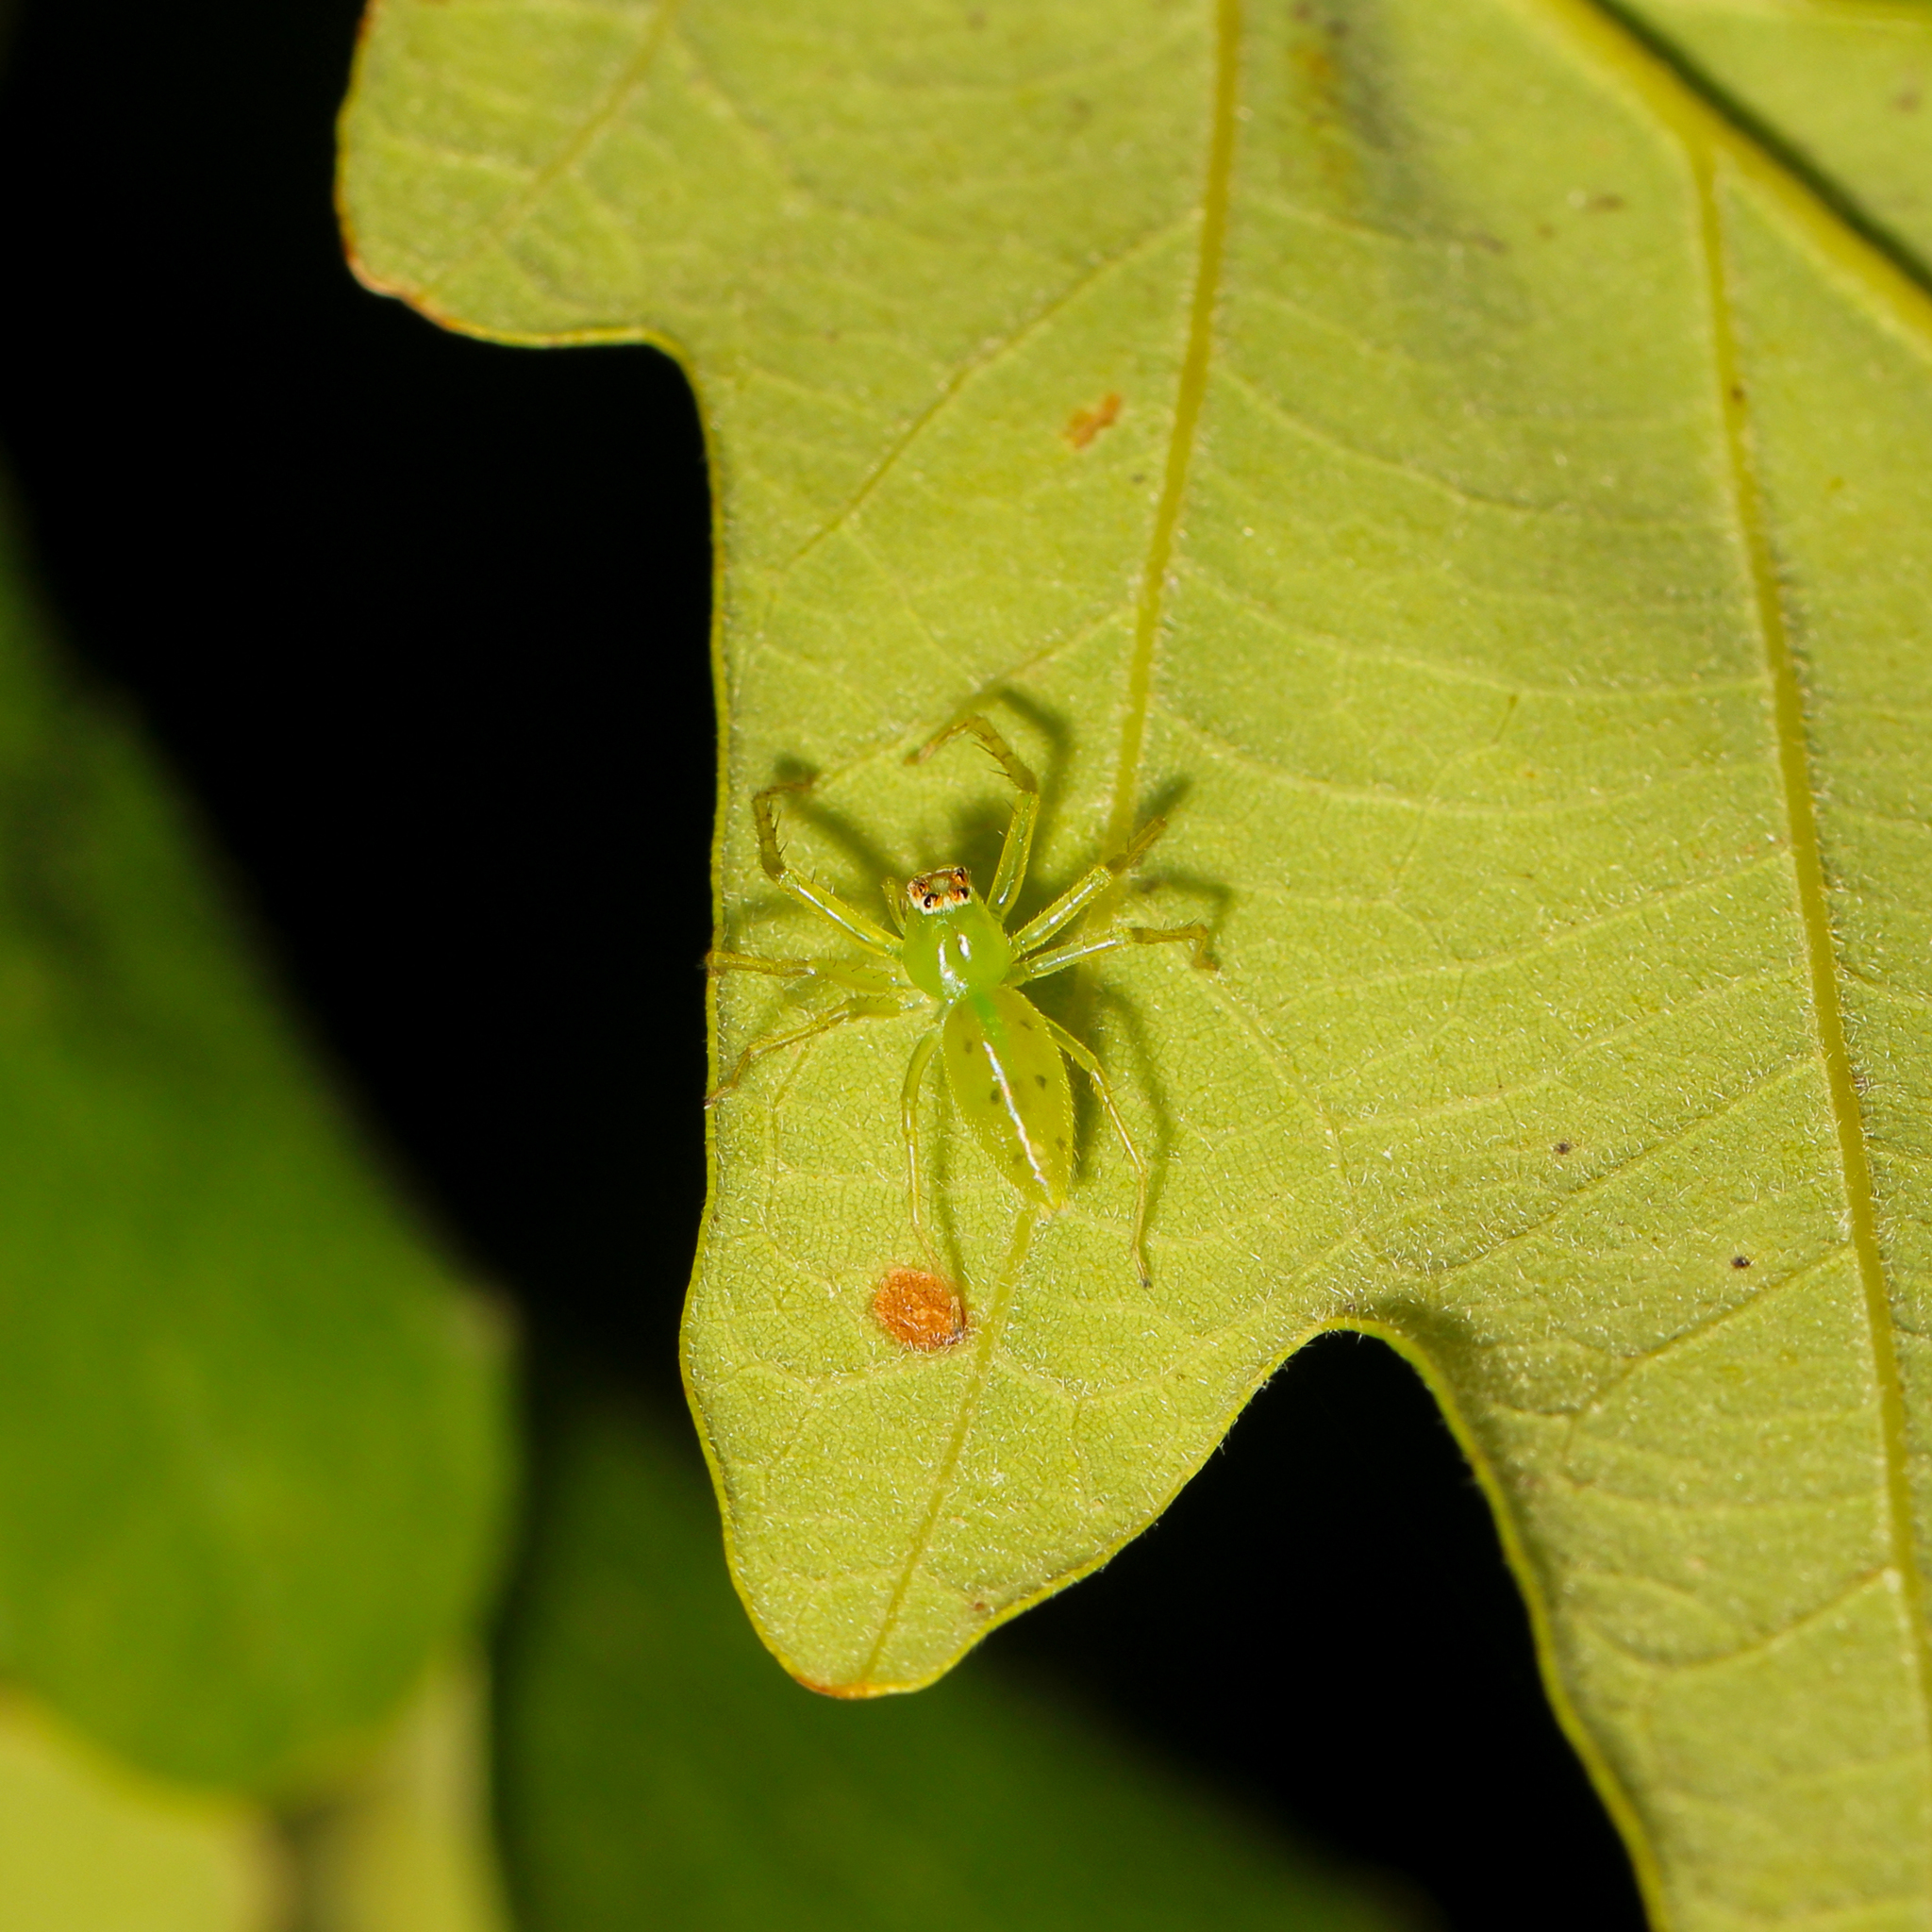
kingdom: Animalia
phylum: Arthropoda
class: Arachnida
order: Araneae
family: Salticidae
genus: Lyssomanes
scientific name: Lyssomanes viridis
